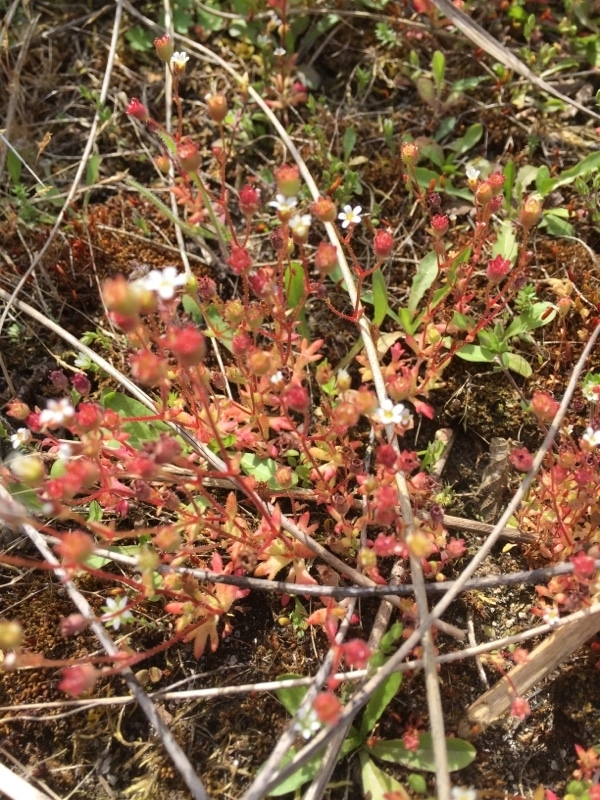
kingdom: Plantae
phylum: Tracheophyta
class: Magnoliopsida
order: Saxifragales
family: Saxifragaceae
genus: Saxifraga
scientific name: Saxifraga tridactylites
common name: Rue-leaved saxifrage
